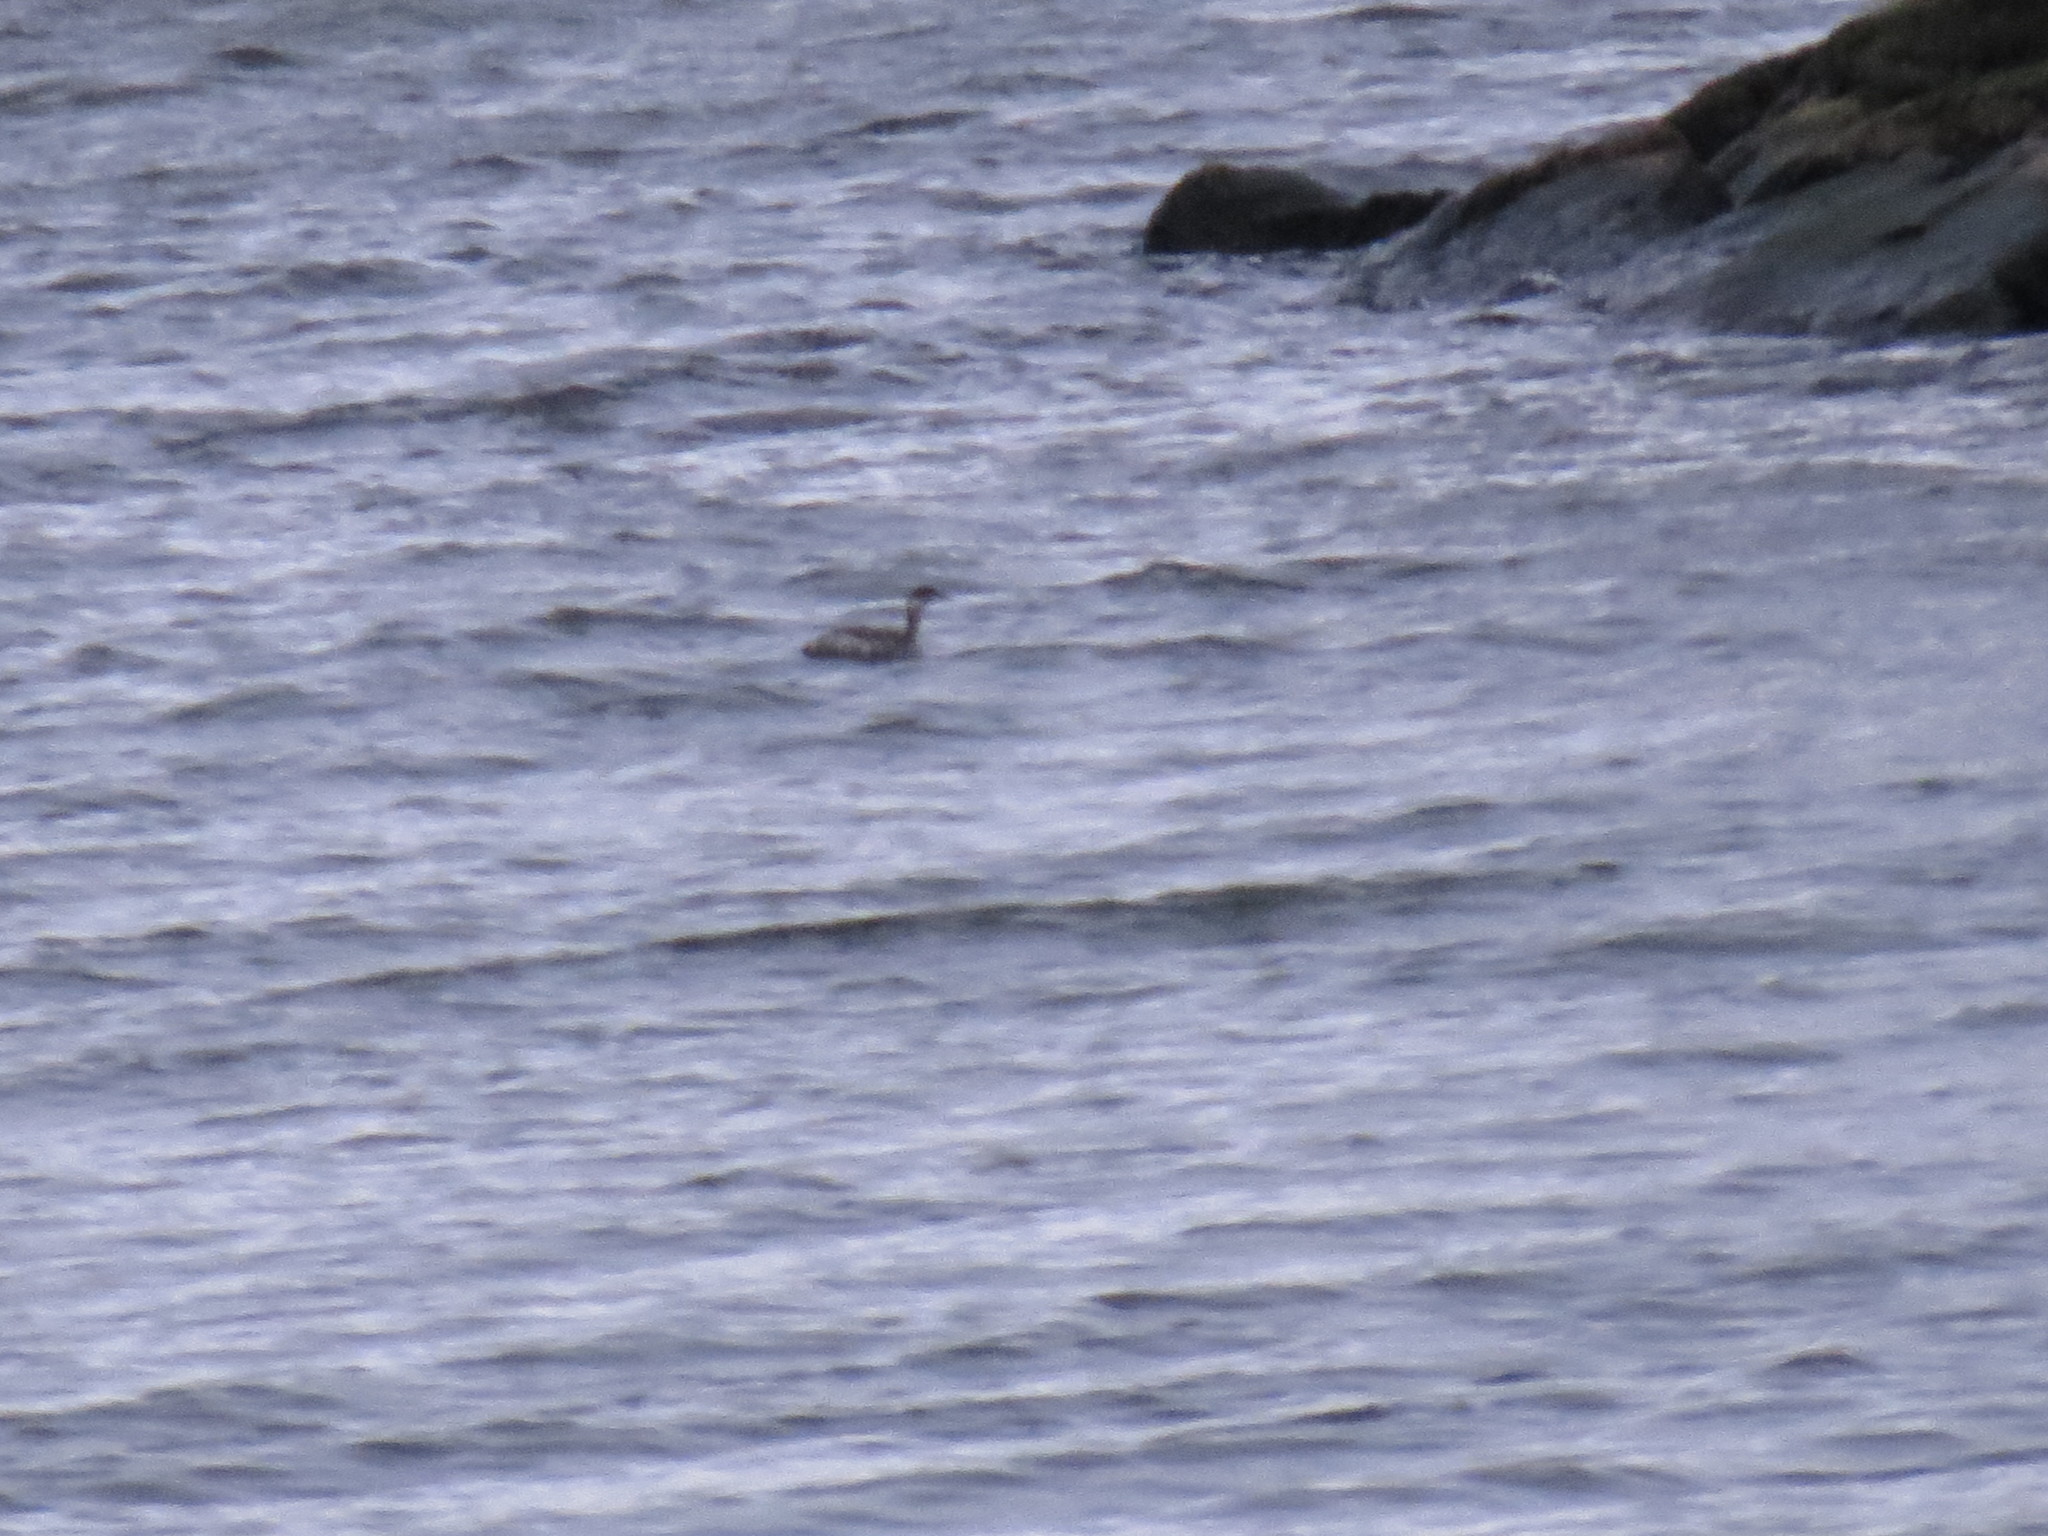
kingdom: Animalia
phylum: Chordata
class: Aves
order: Podicipediformes
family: Podicipedidae
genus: Podiceps
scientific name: Podiceps nigricollis
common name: Black-necked grebe
